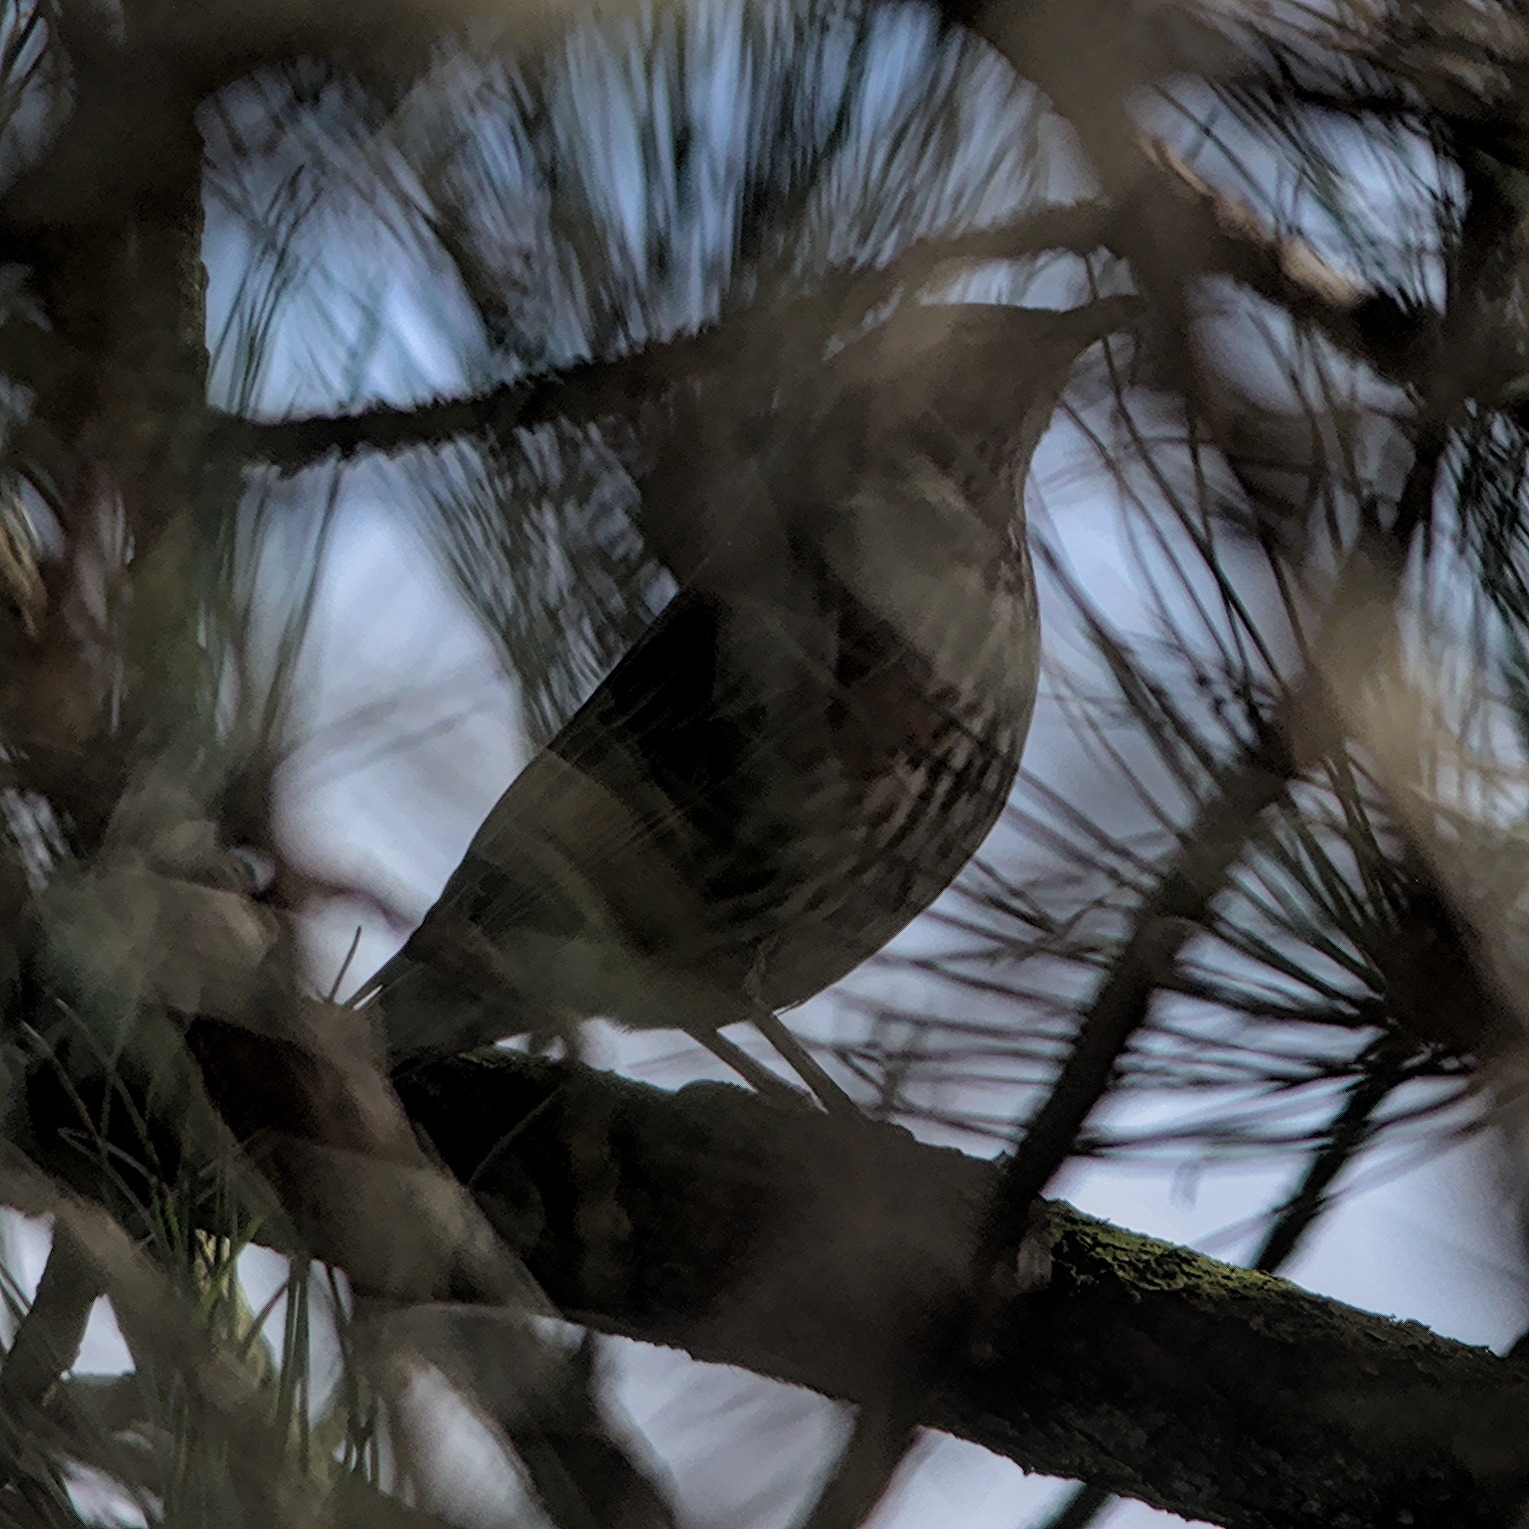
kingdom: Animalia
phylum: Chordata
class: Aves
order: Passeriformes
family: Turdidae
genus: Turdus
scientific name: Turdus iliacus
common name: Redwing
